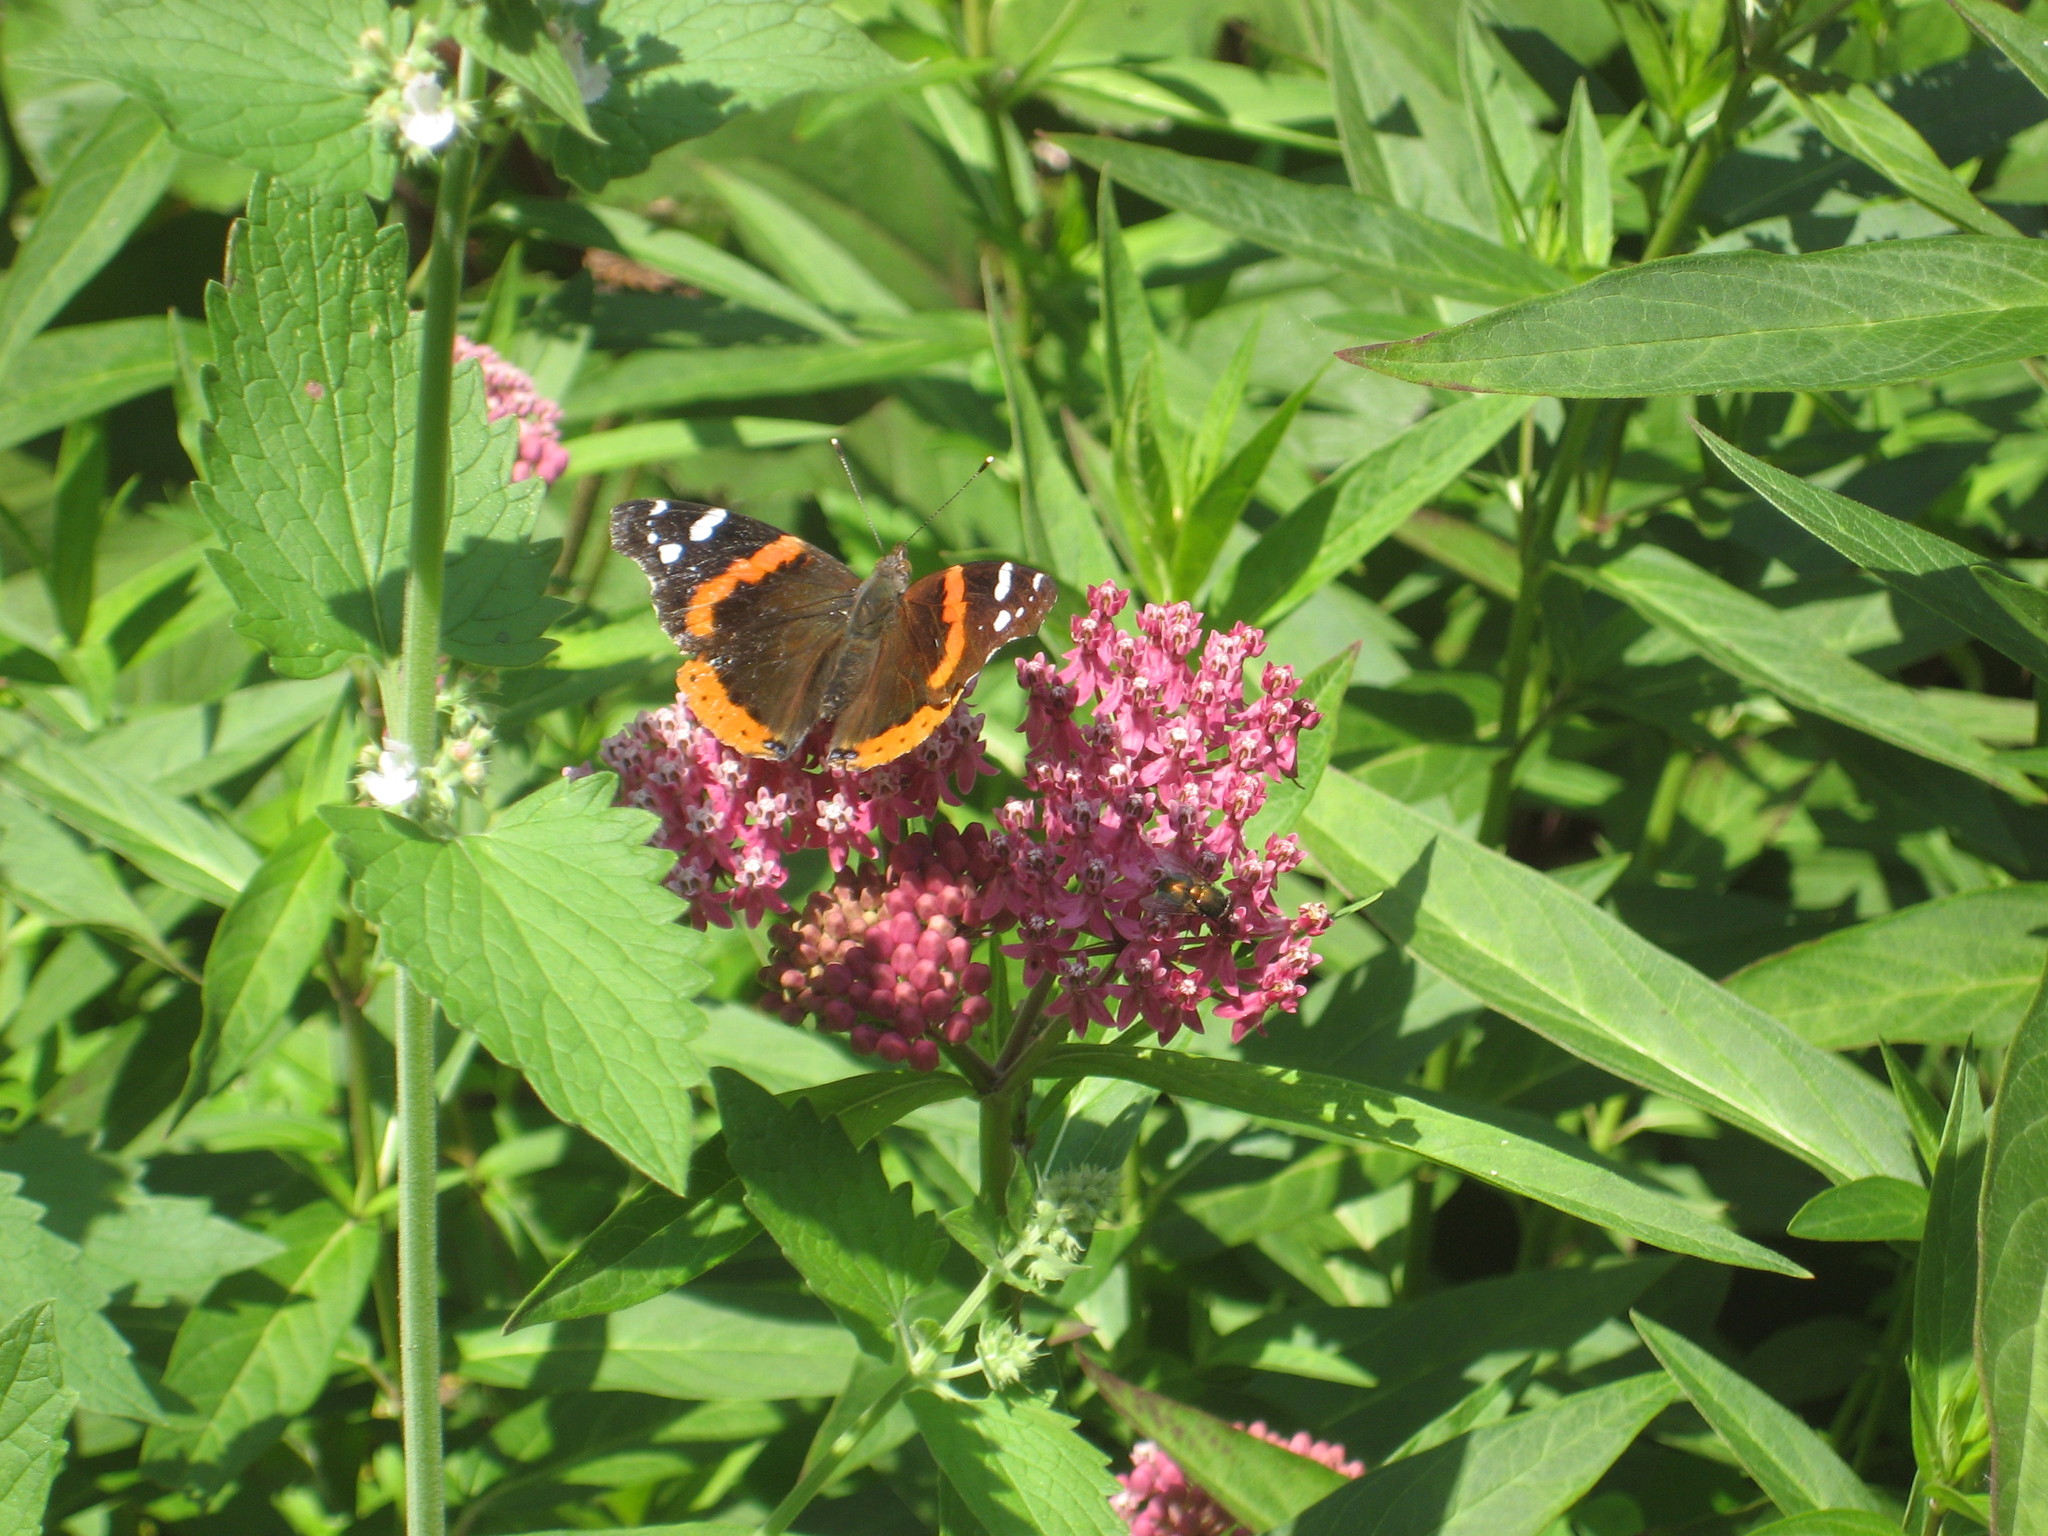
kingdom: Animalia
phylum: Arthropoda
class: Insecta
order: Lepidoptera
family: Nymphalidae
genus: Vanessa
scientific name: Vanessa atalanta
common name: Red admiral
